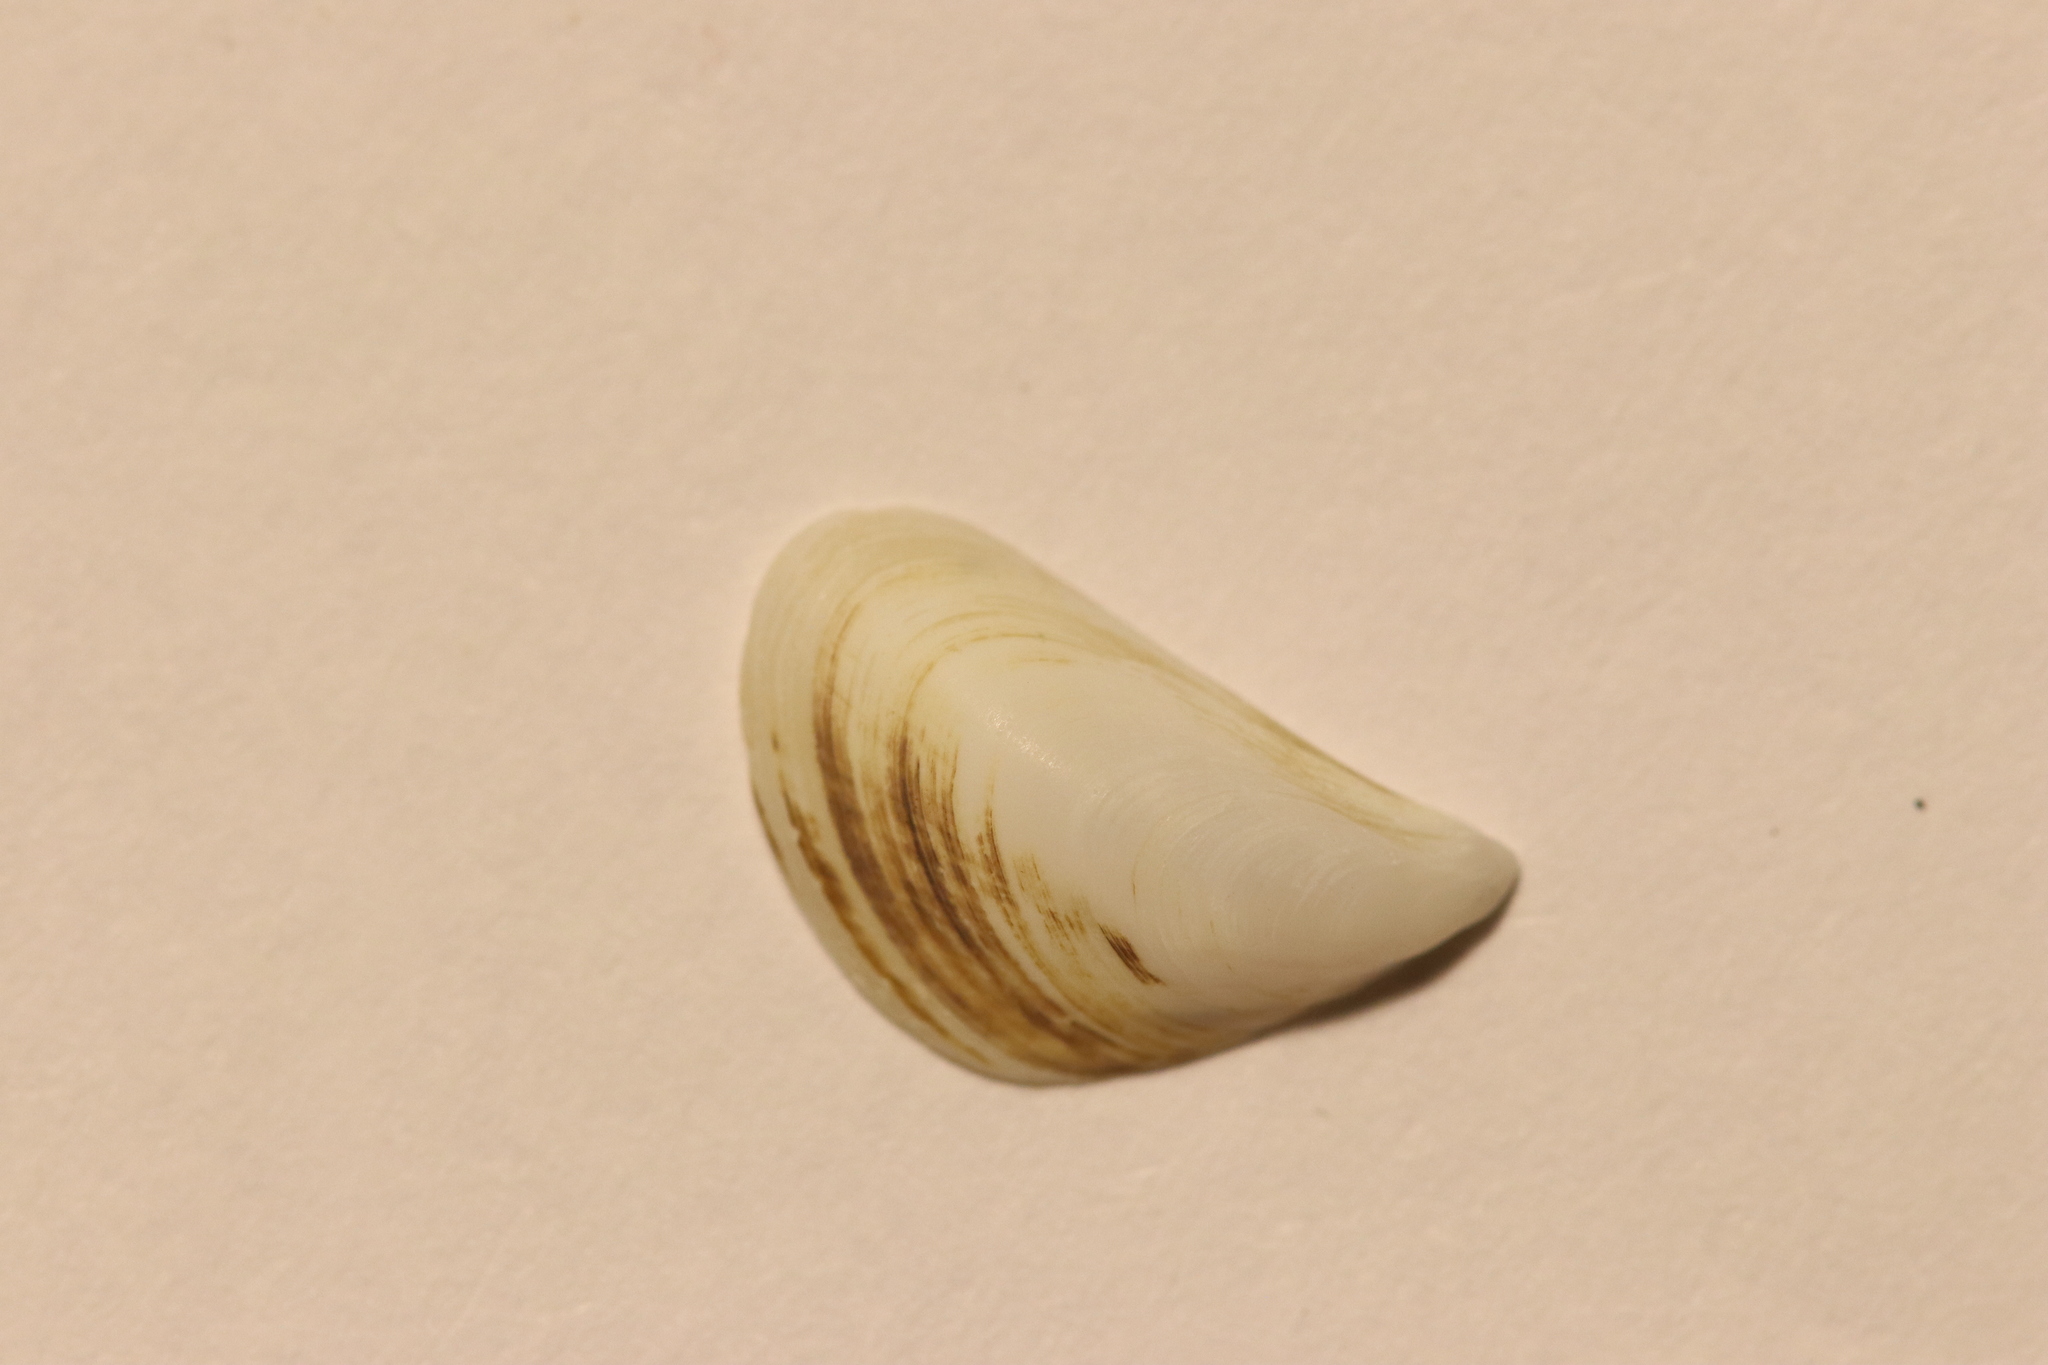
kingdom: Animalia
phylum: Mollusca
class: Bivalvia
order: Myida
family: Dreissenidae
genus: Dreissena
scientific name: Dreissena bugensis
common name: Quagga mussel
